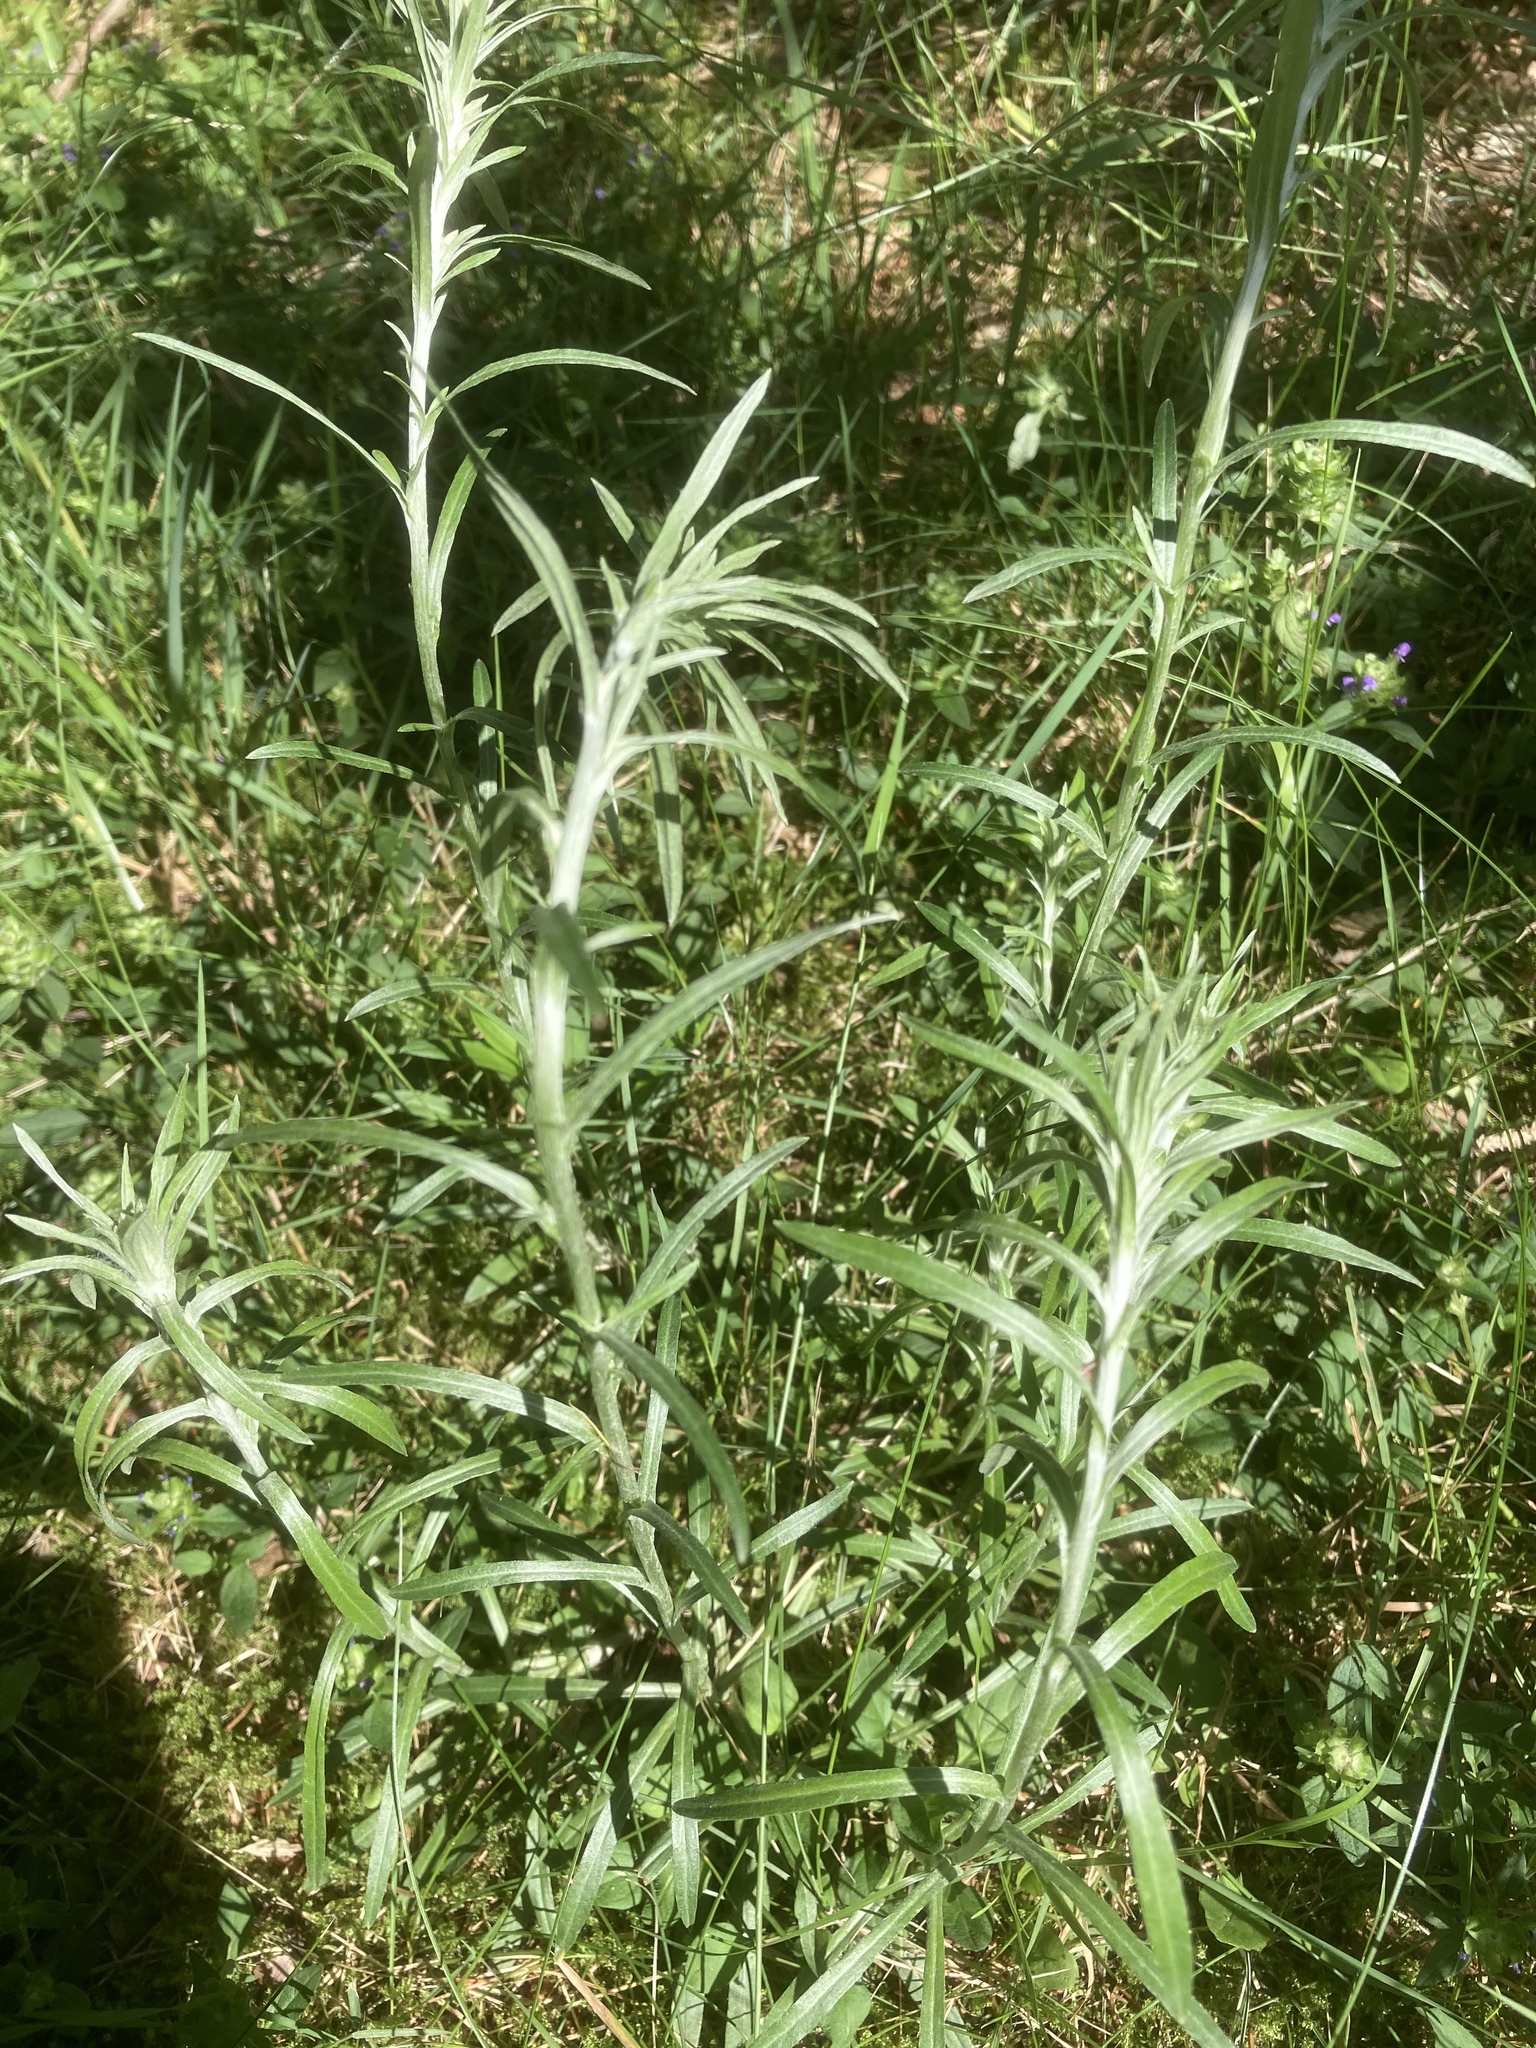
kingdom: Plantae
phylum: Tracheophyta
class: Magnoliopsida
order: Asterales
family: Asteraceae
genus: Omalotheca
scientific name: Omalotheca sylvatica
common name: Heath cudweed
